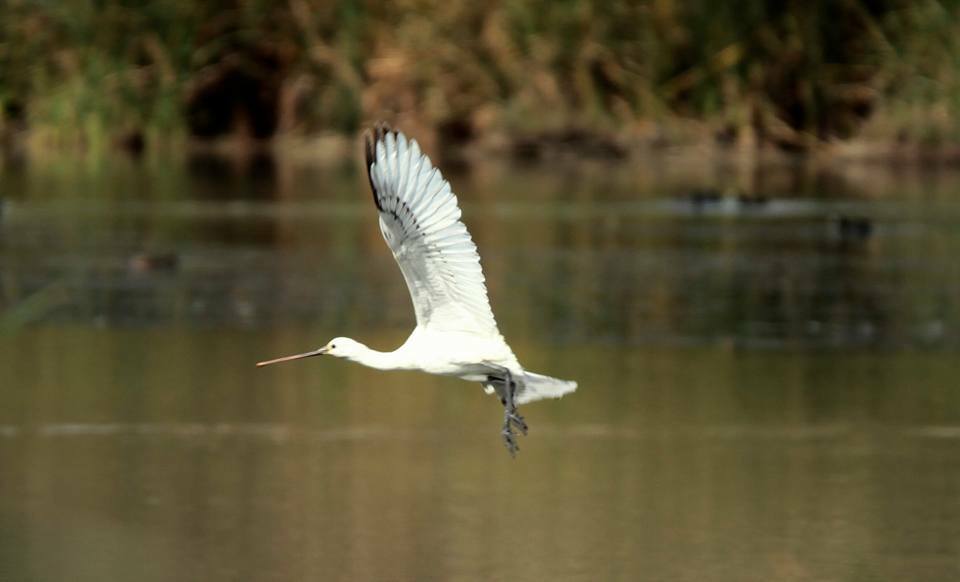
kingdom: Animalia
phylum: Chordata
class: Aves
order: Pelecaniformes
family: Threskiornithidae
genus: Platalea
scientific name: Platalea leucorodia
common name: Eurasian spoonbill
